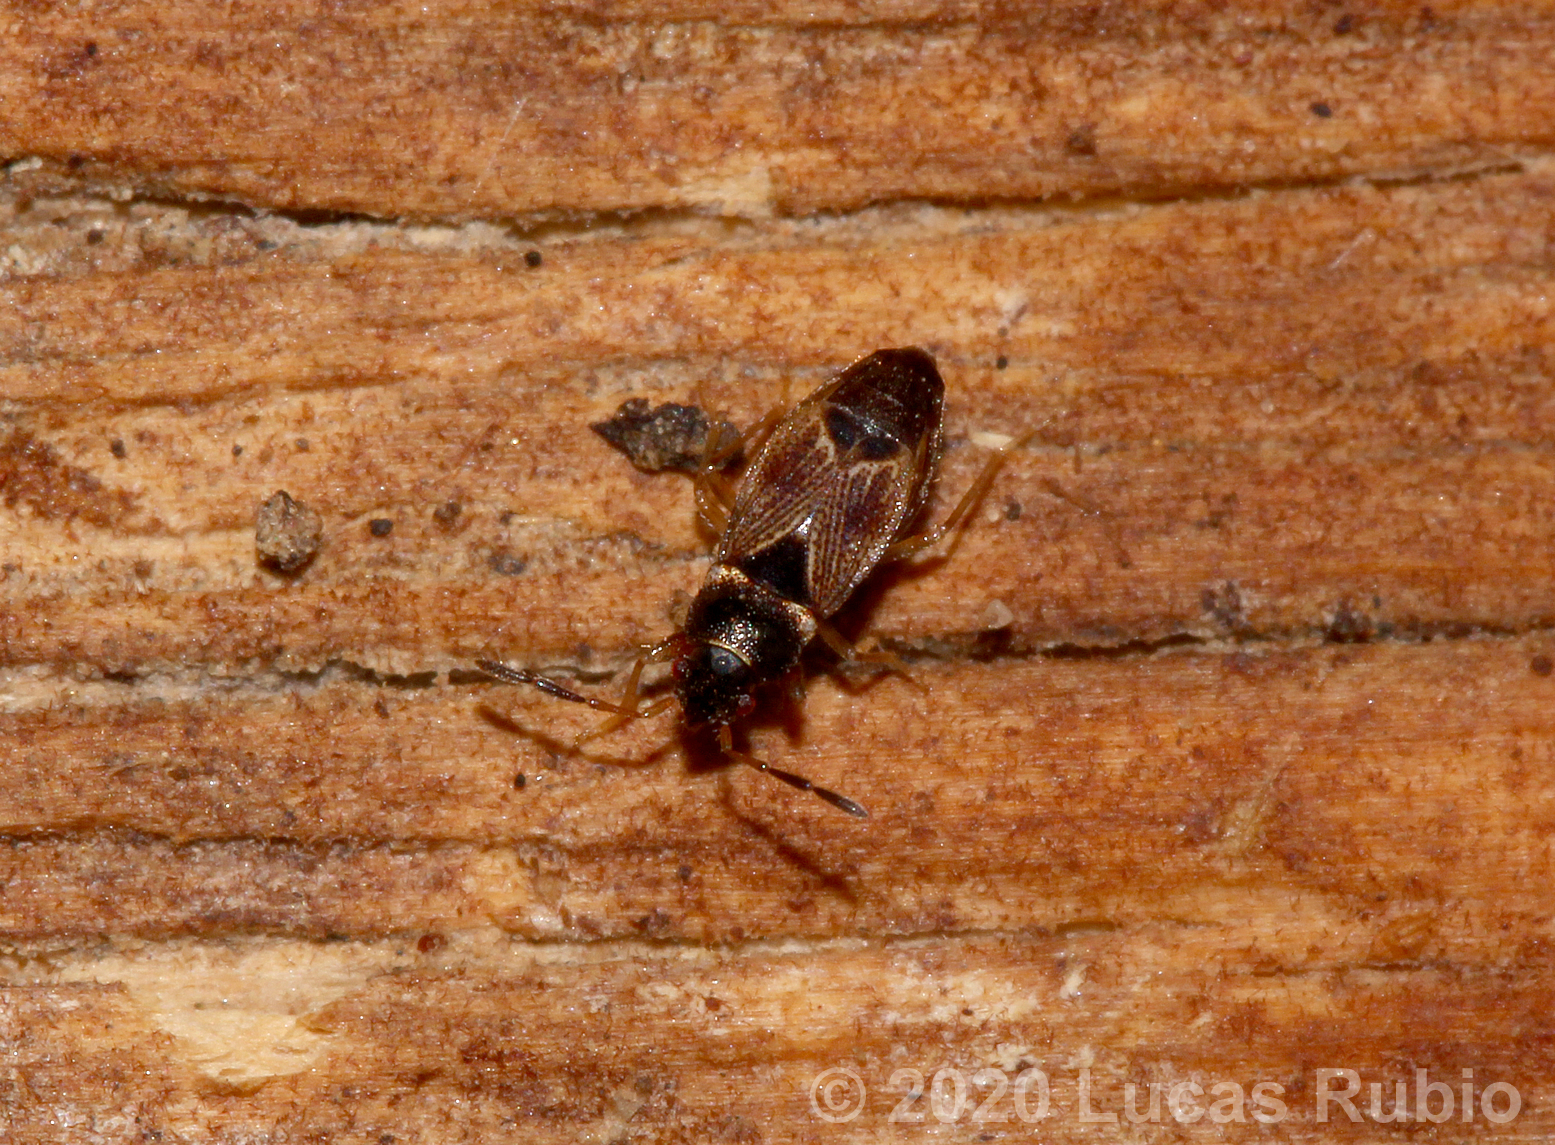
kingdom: Animalia
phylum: Arthropoda
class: Insecta
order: Hemiptera
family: Rhyparochromidae
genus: Cryphula
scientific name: Cryphula dubia
